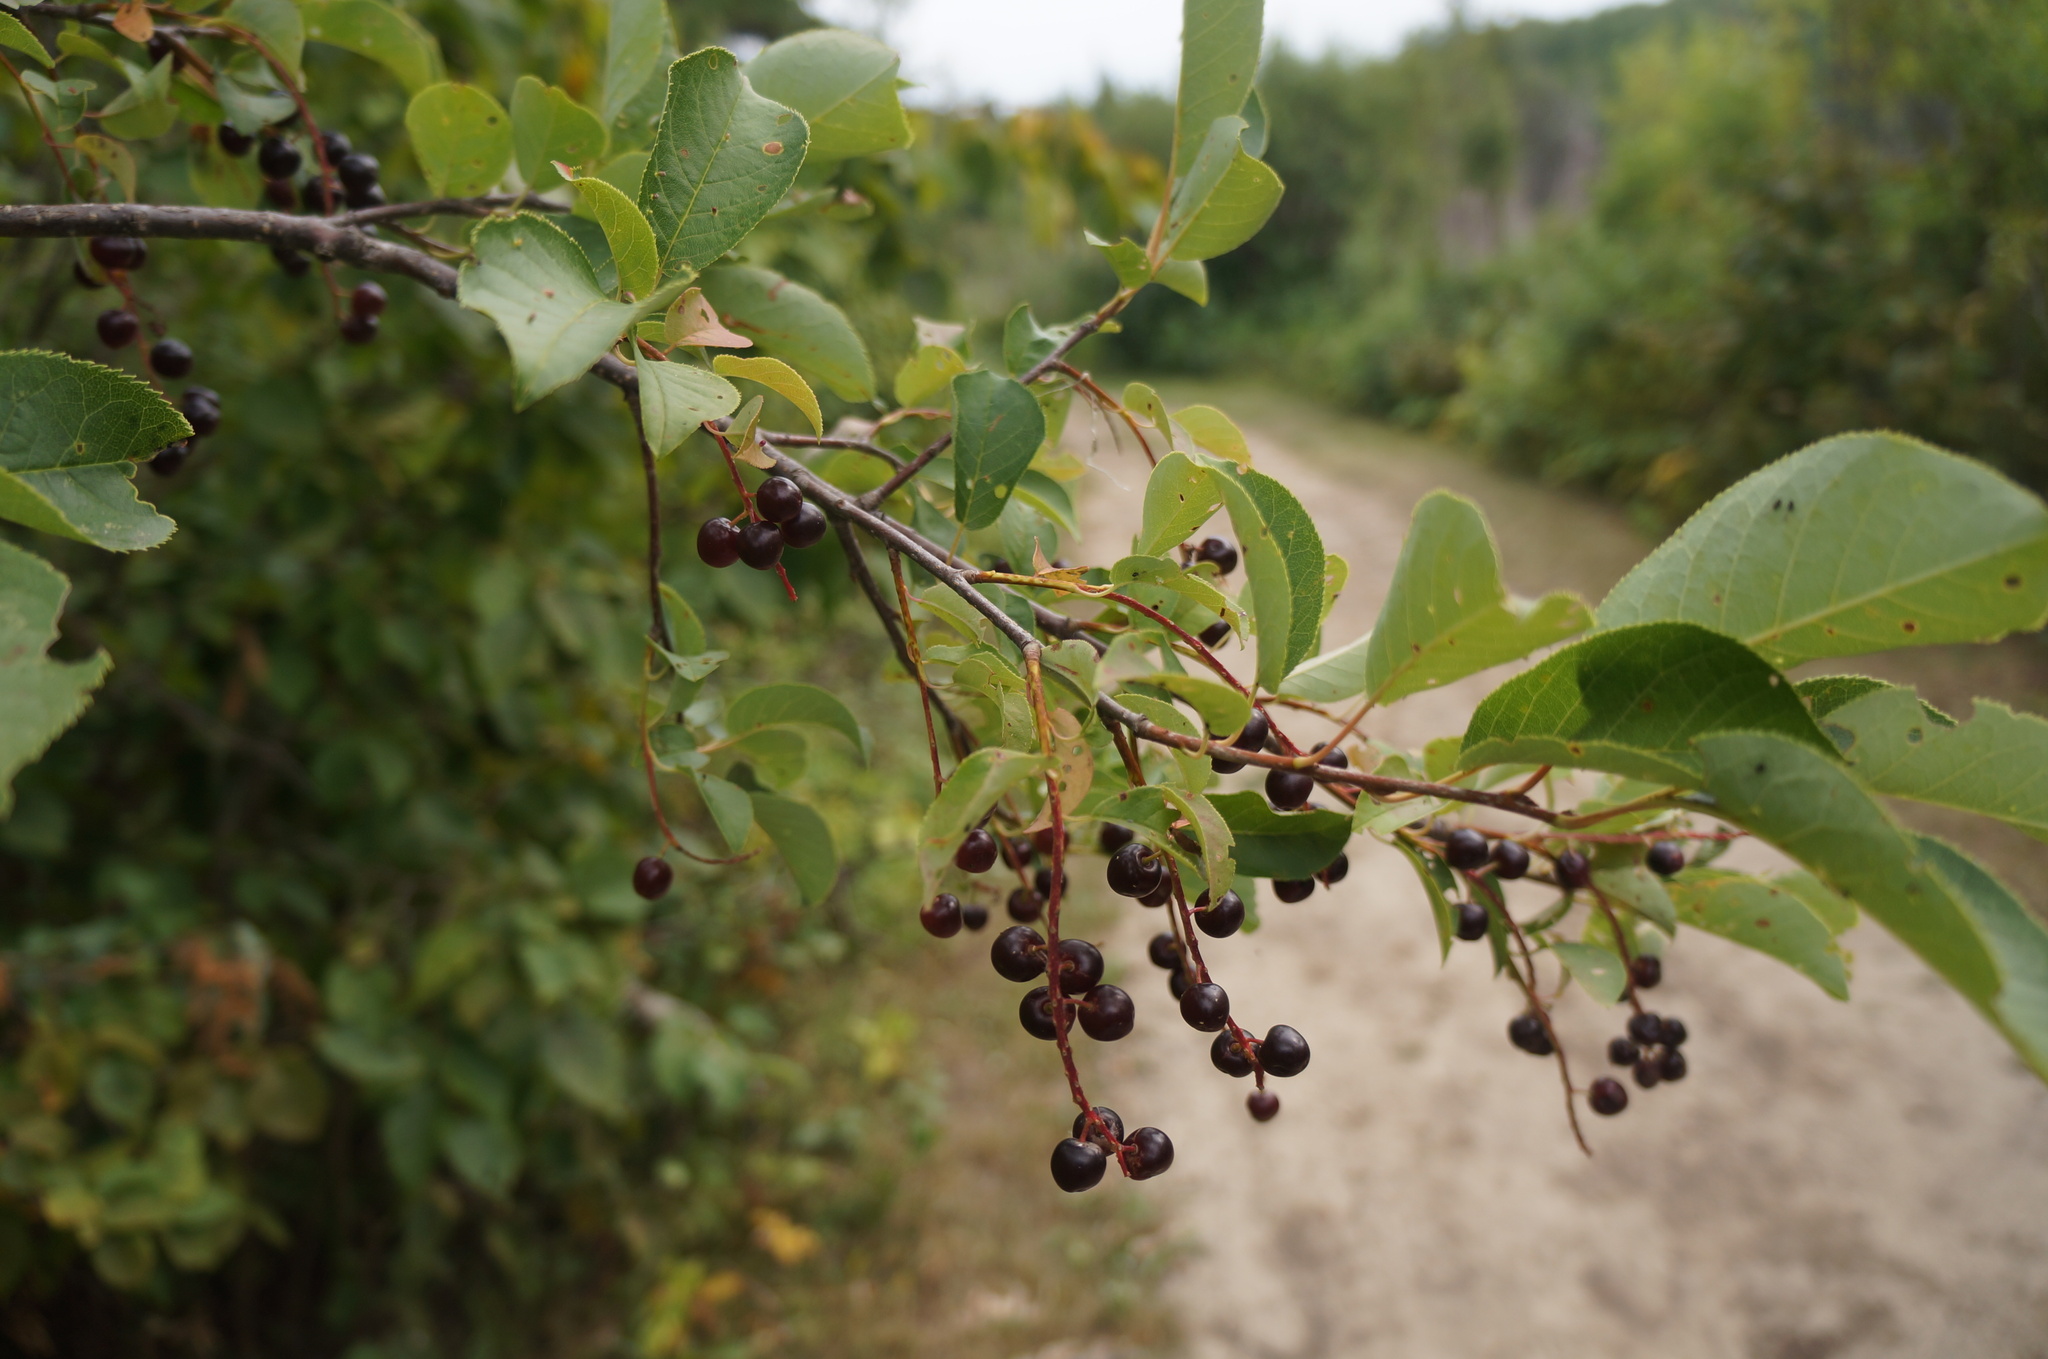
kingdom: Plantae
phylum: Tracheophyta
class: Magnoliopsida
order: Rosales
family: Rosaceae
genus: Prunus
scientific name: Prunus virginiana
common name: Chokecherry
